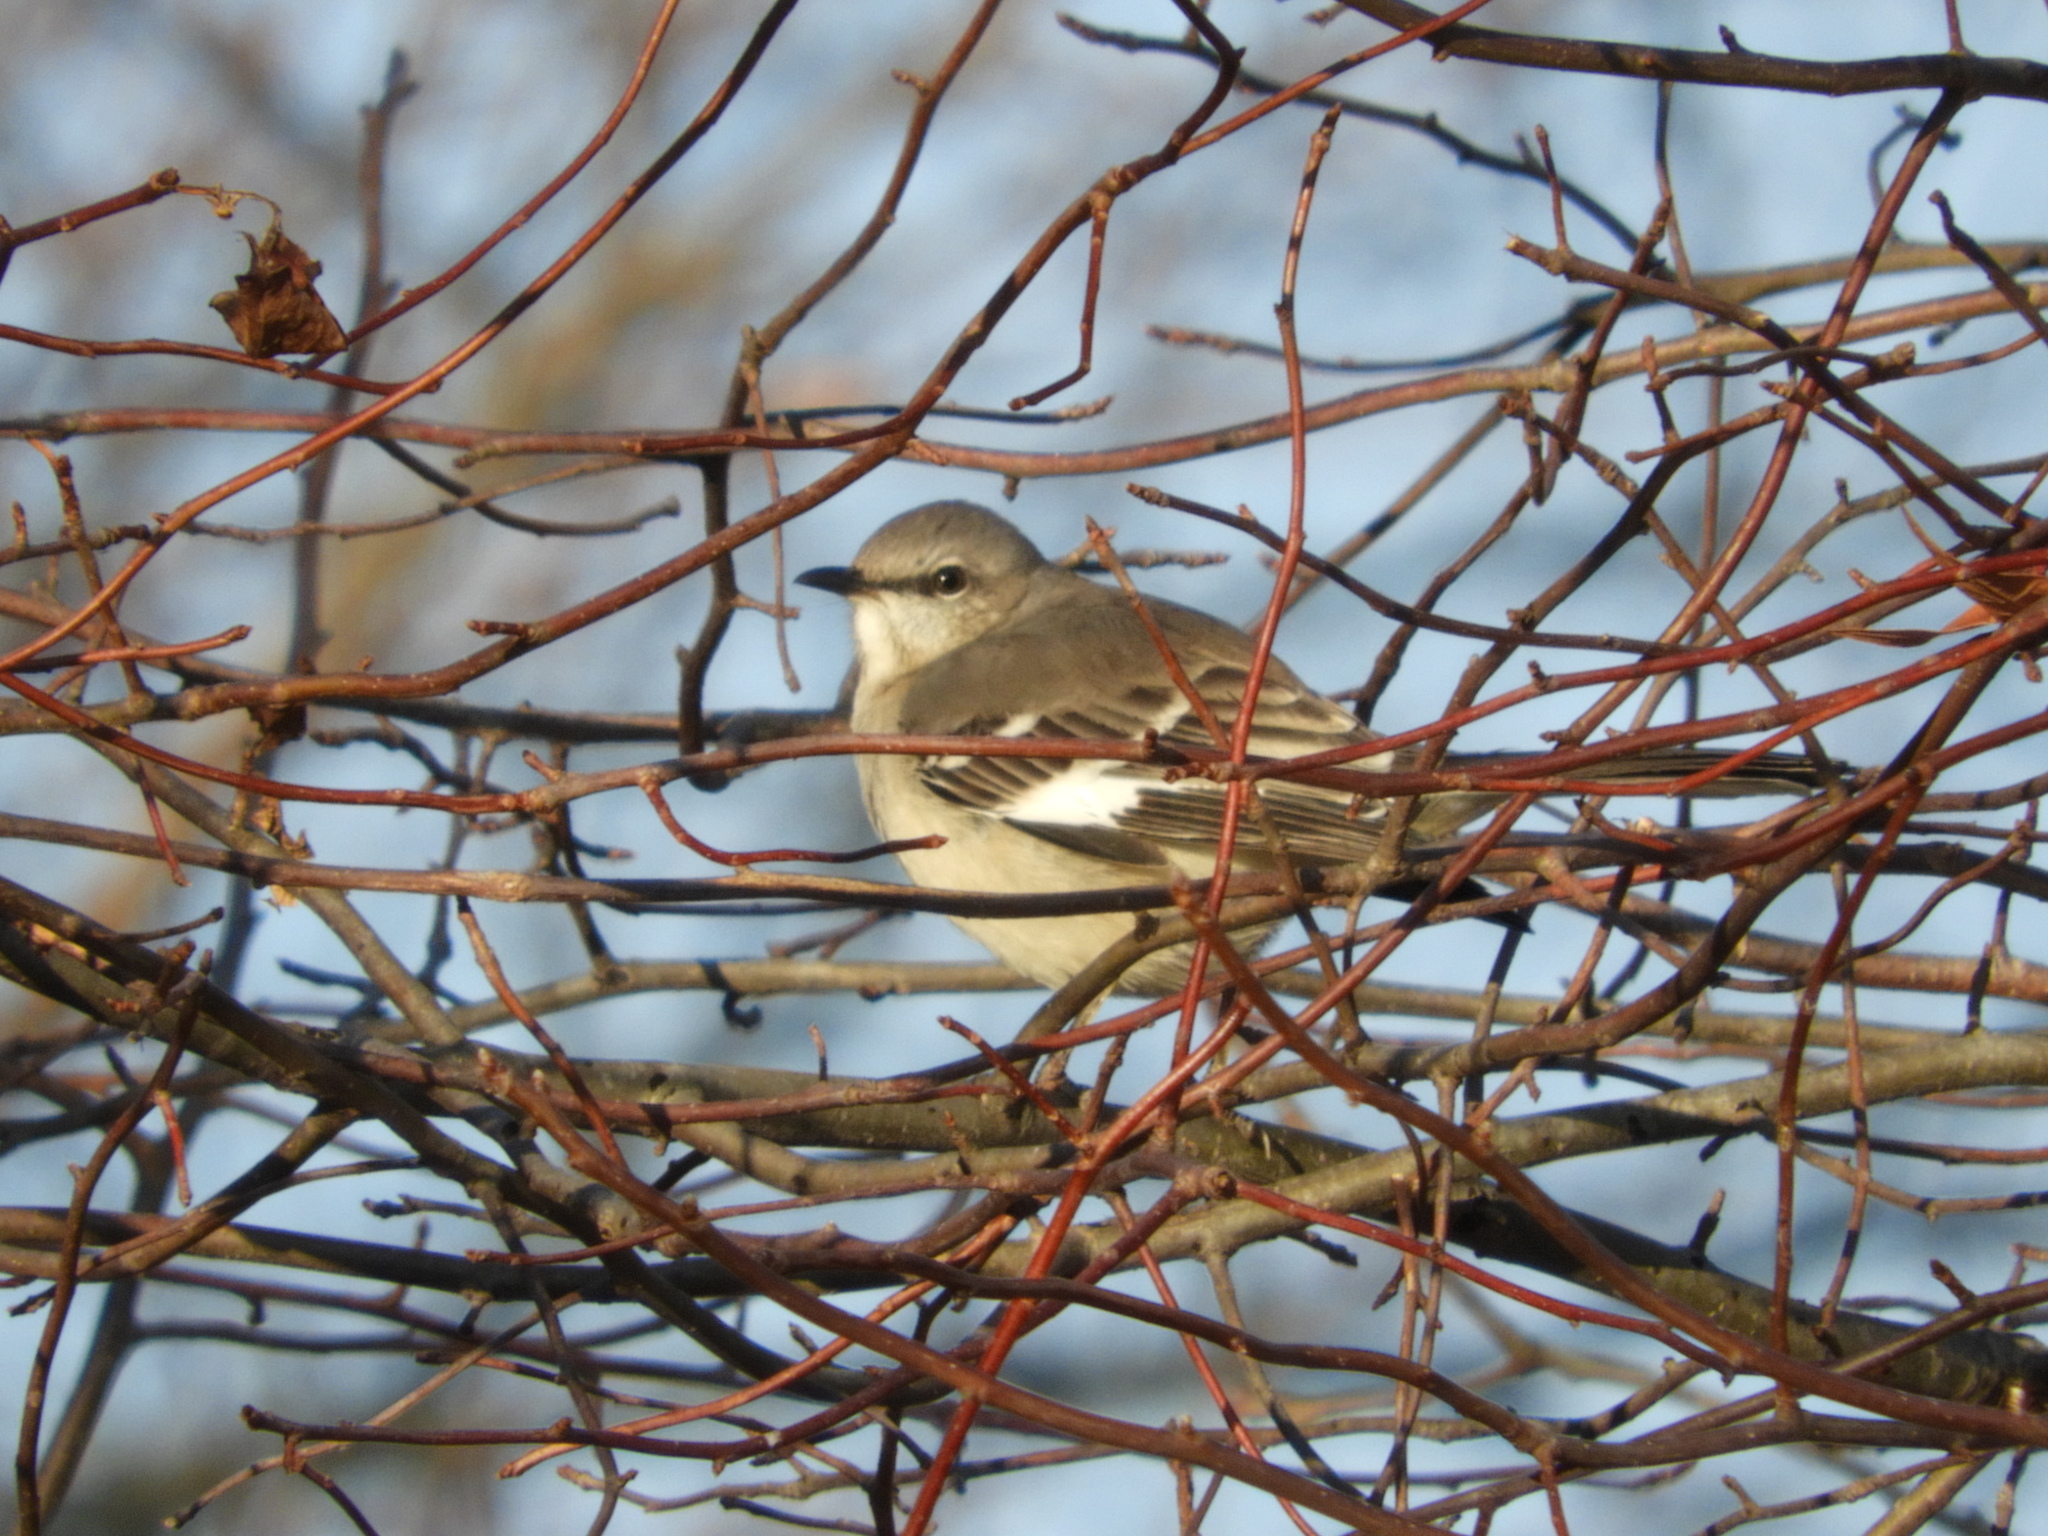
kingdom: Animalia
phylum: Chordata
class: Aves
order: Passeriformes
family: Mimidae
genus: Mimus
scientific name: Mimus polyglottos
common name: Northern mockingbird
